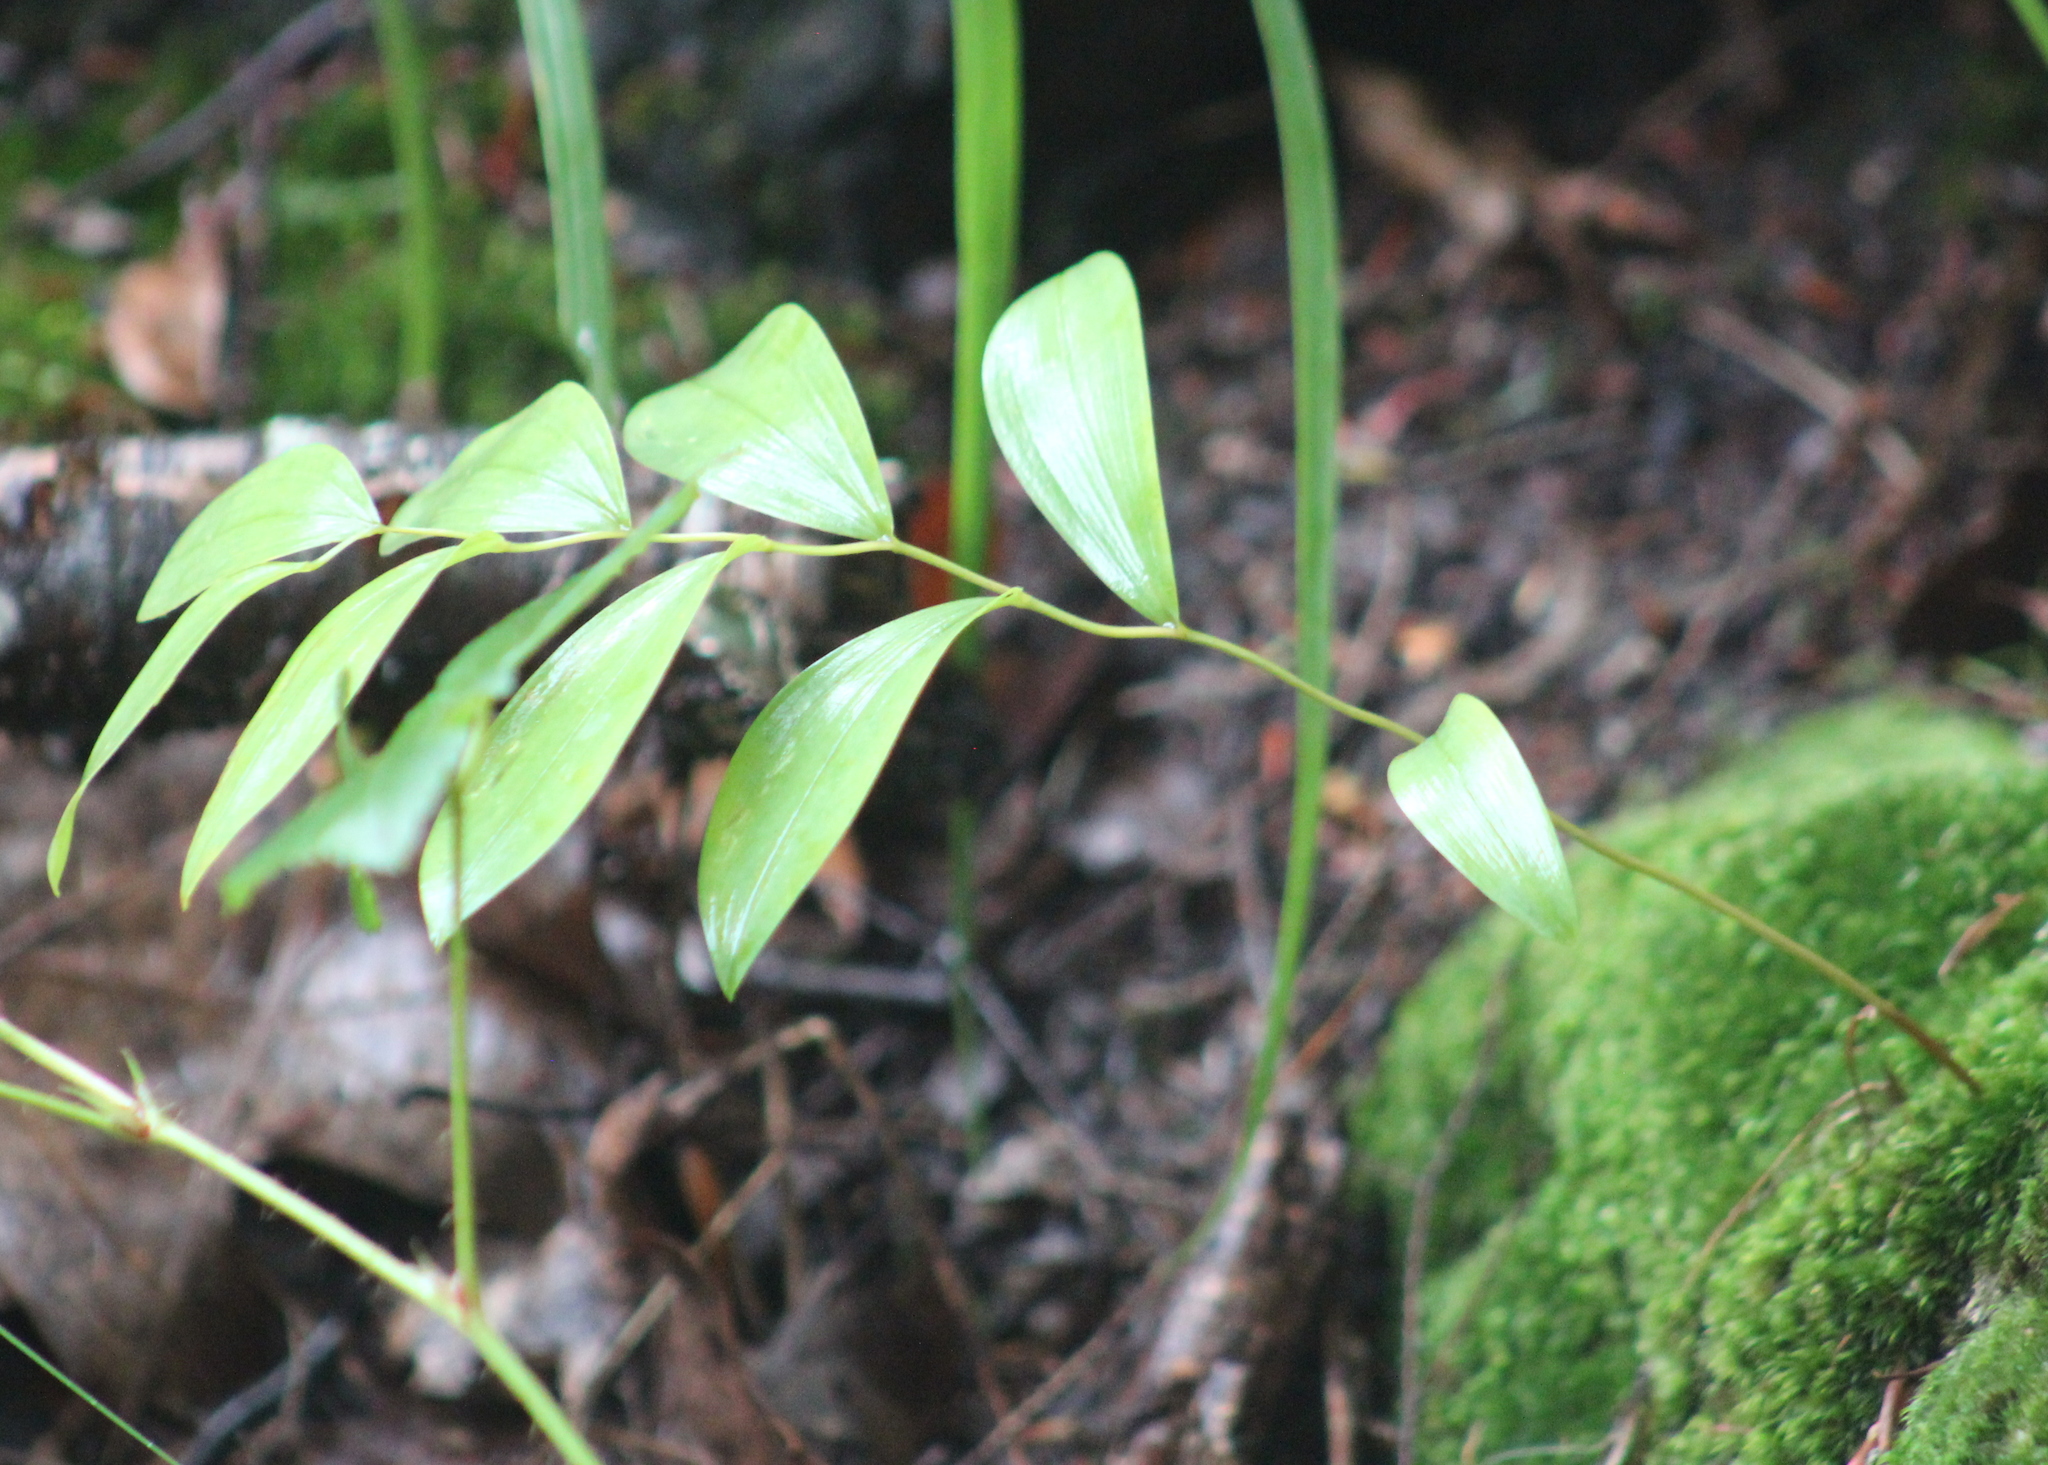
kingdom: Plantae
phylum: Tracheophyta
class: Liliopsida
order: Liliales
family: Colchicaceae
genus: Uvularia
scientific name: Uvularia sessilifolia
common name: Straw-lily
